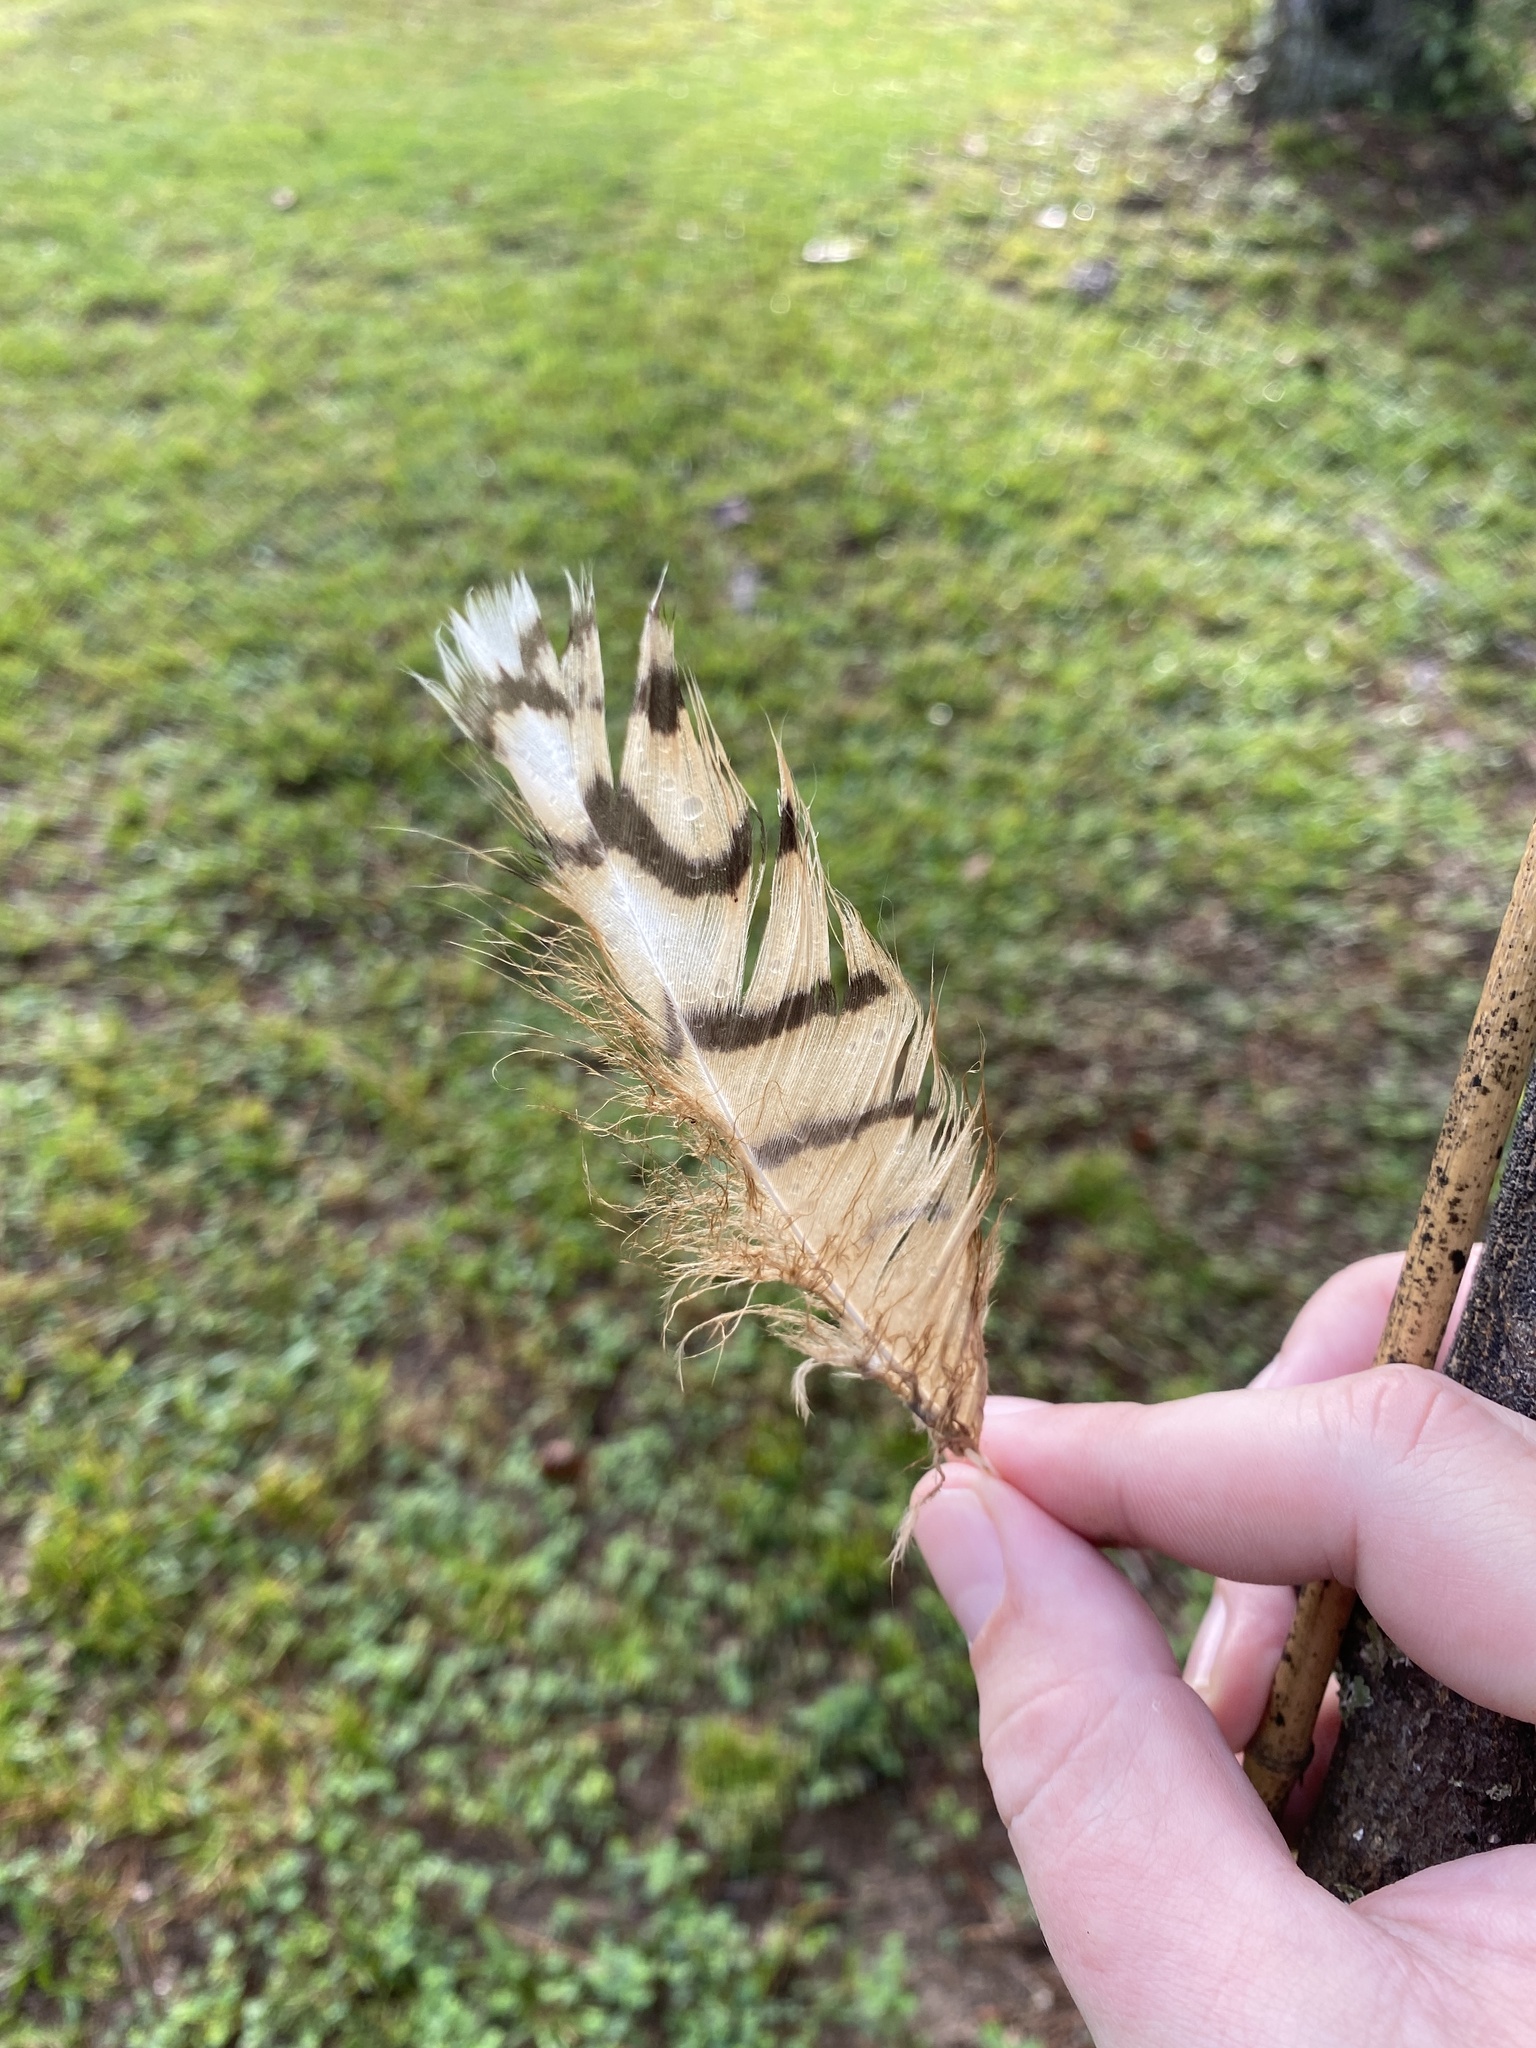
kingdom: Animalia
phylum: Chordata
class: Aves
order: Strigiformes
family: Strigidae
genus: Bubo
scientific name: Bubo virginianus
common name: Great horned owl
